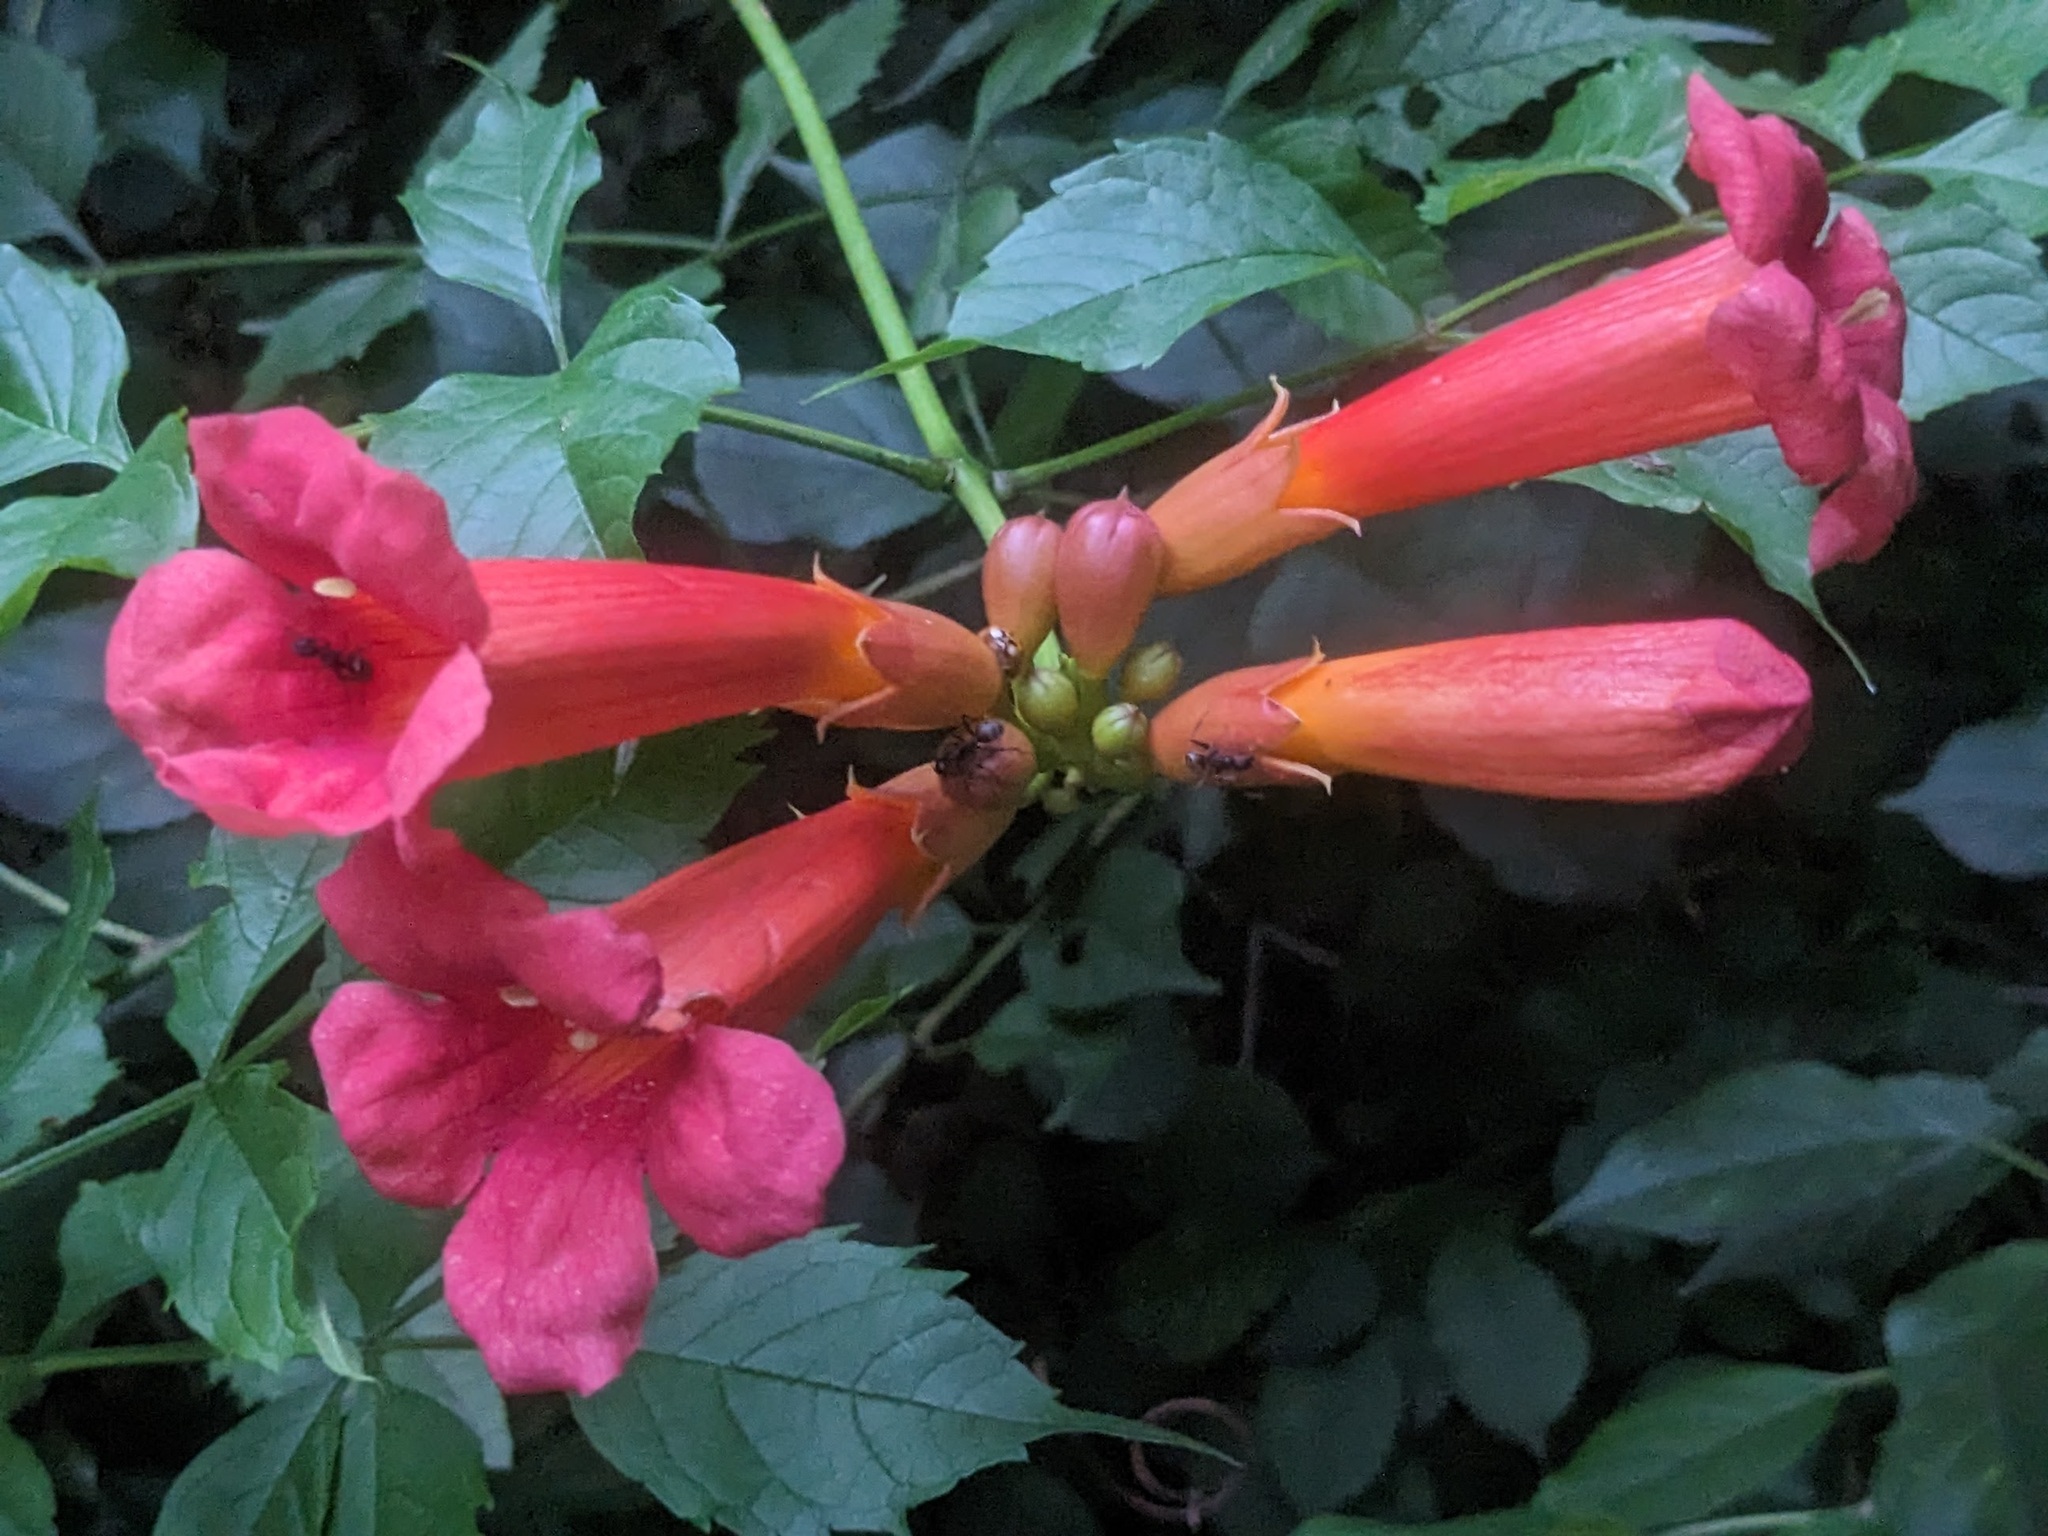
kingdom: Plantae
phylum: Tracheophyta
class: Magnoliopsida
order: Lamiales
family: Bignoniaceae
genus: Campsis
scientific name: Campsis radicans
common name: Trumpet-creeper
